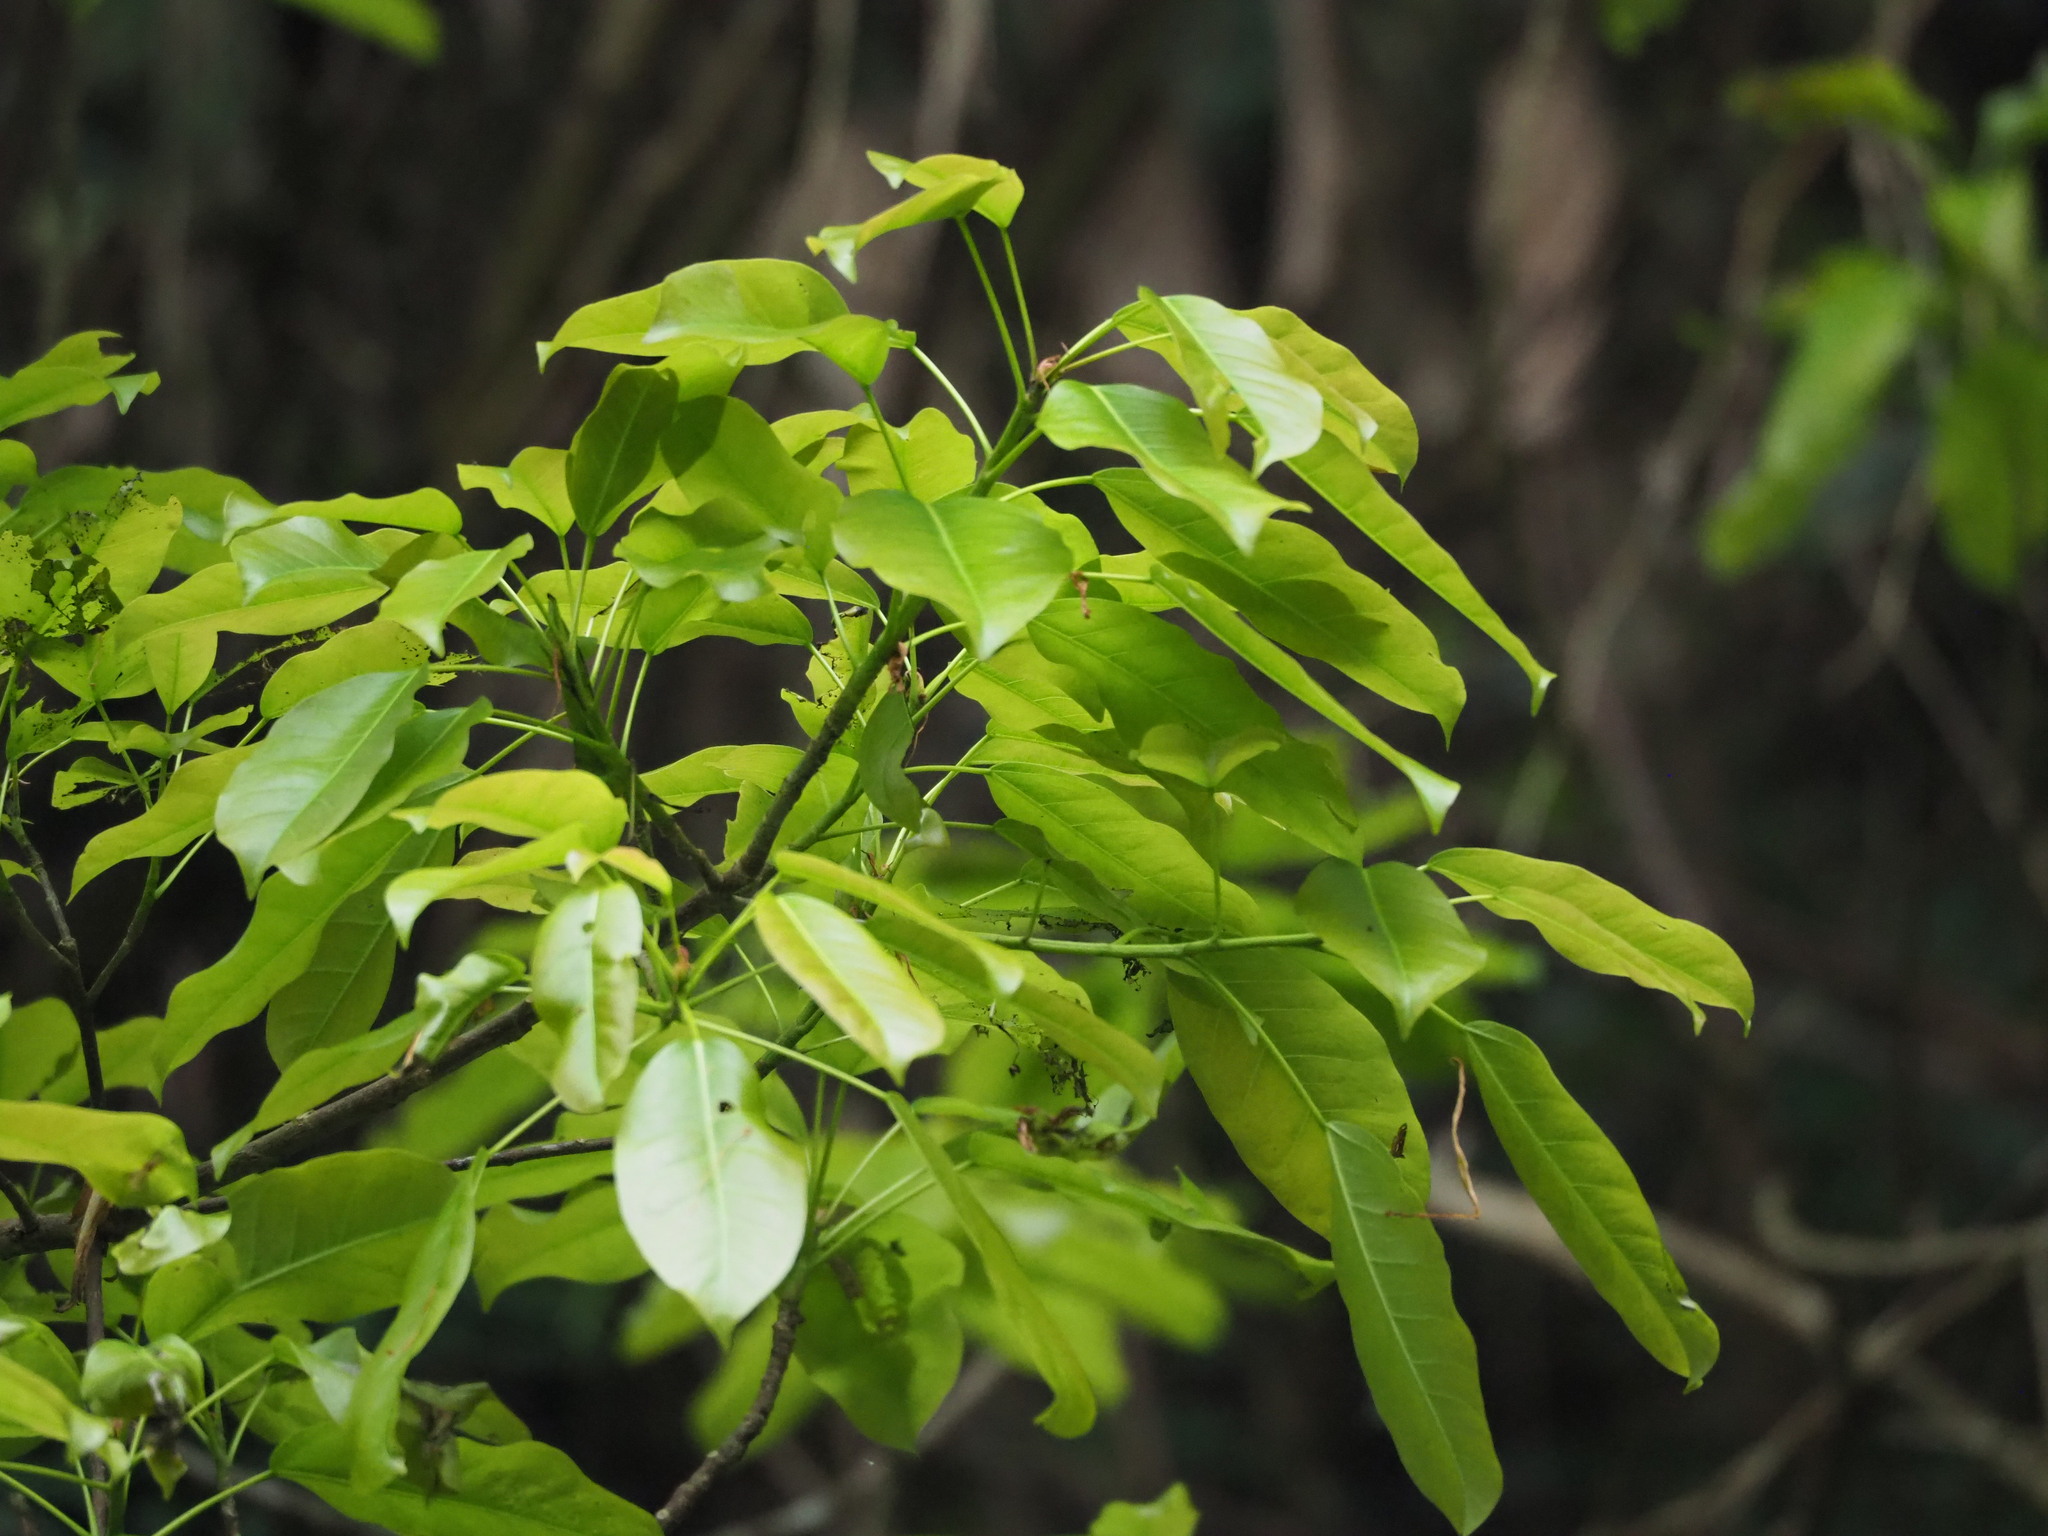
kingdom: Plantae
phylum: Tracheophyta
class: Magnoliopsida
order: Rosales
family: Moraceae
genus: Ficus
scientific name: Ficus subpisocarpa
